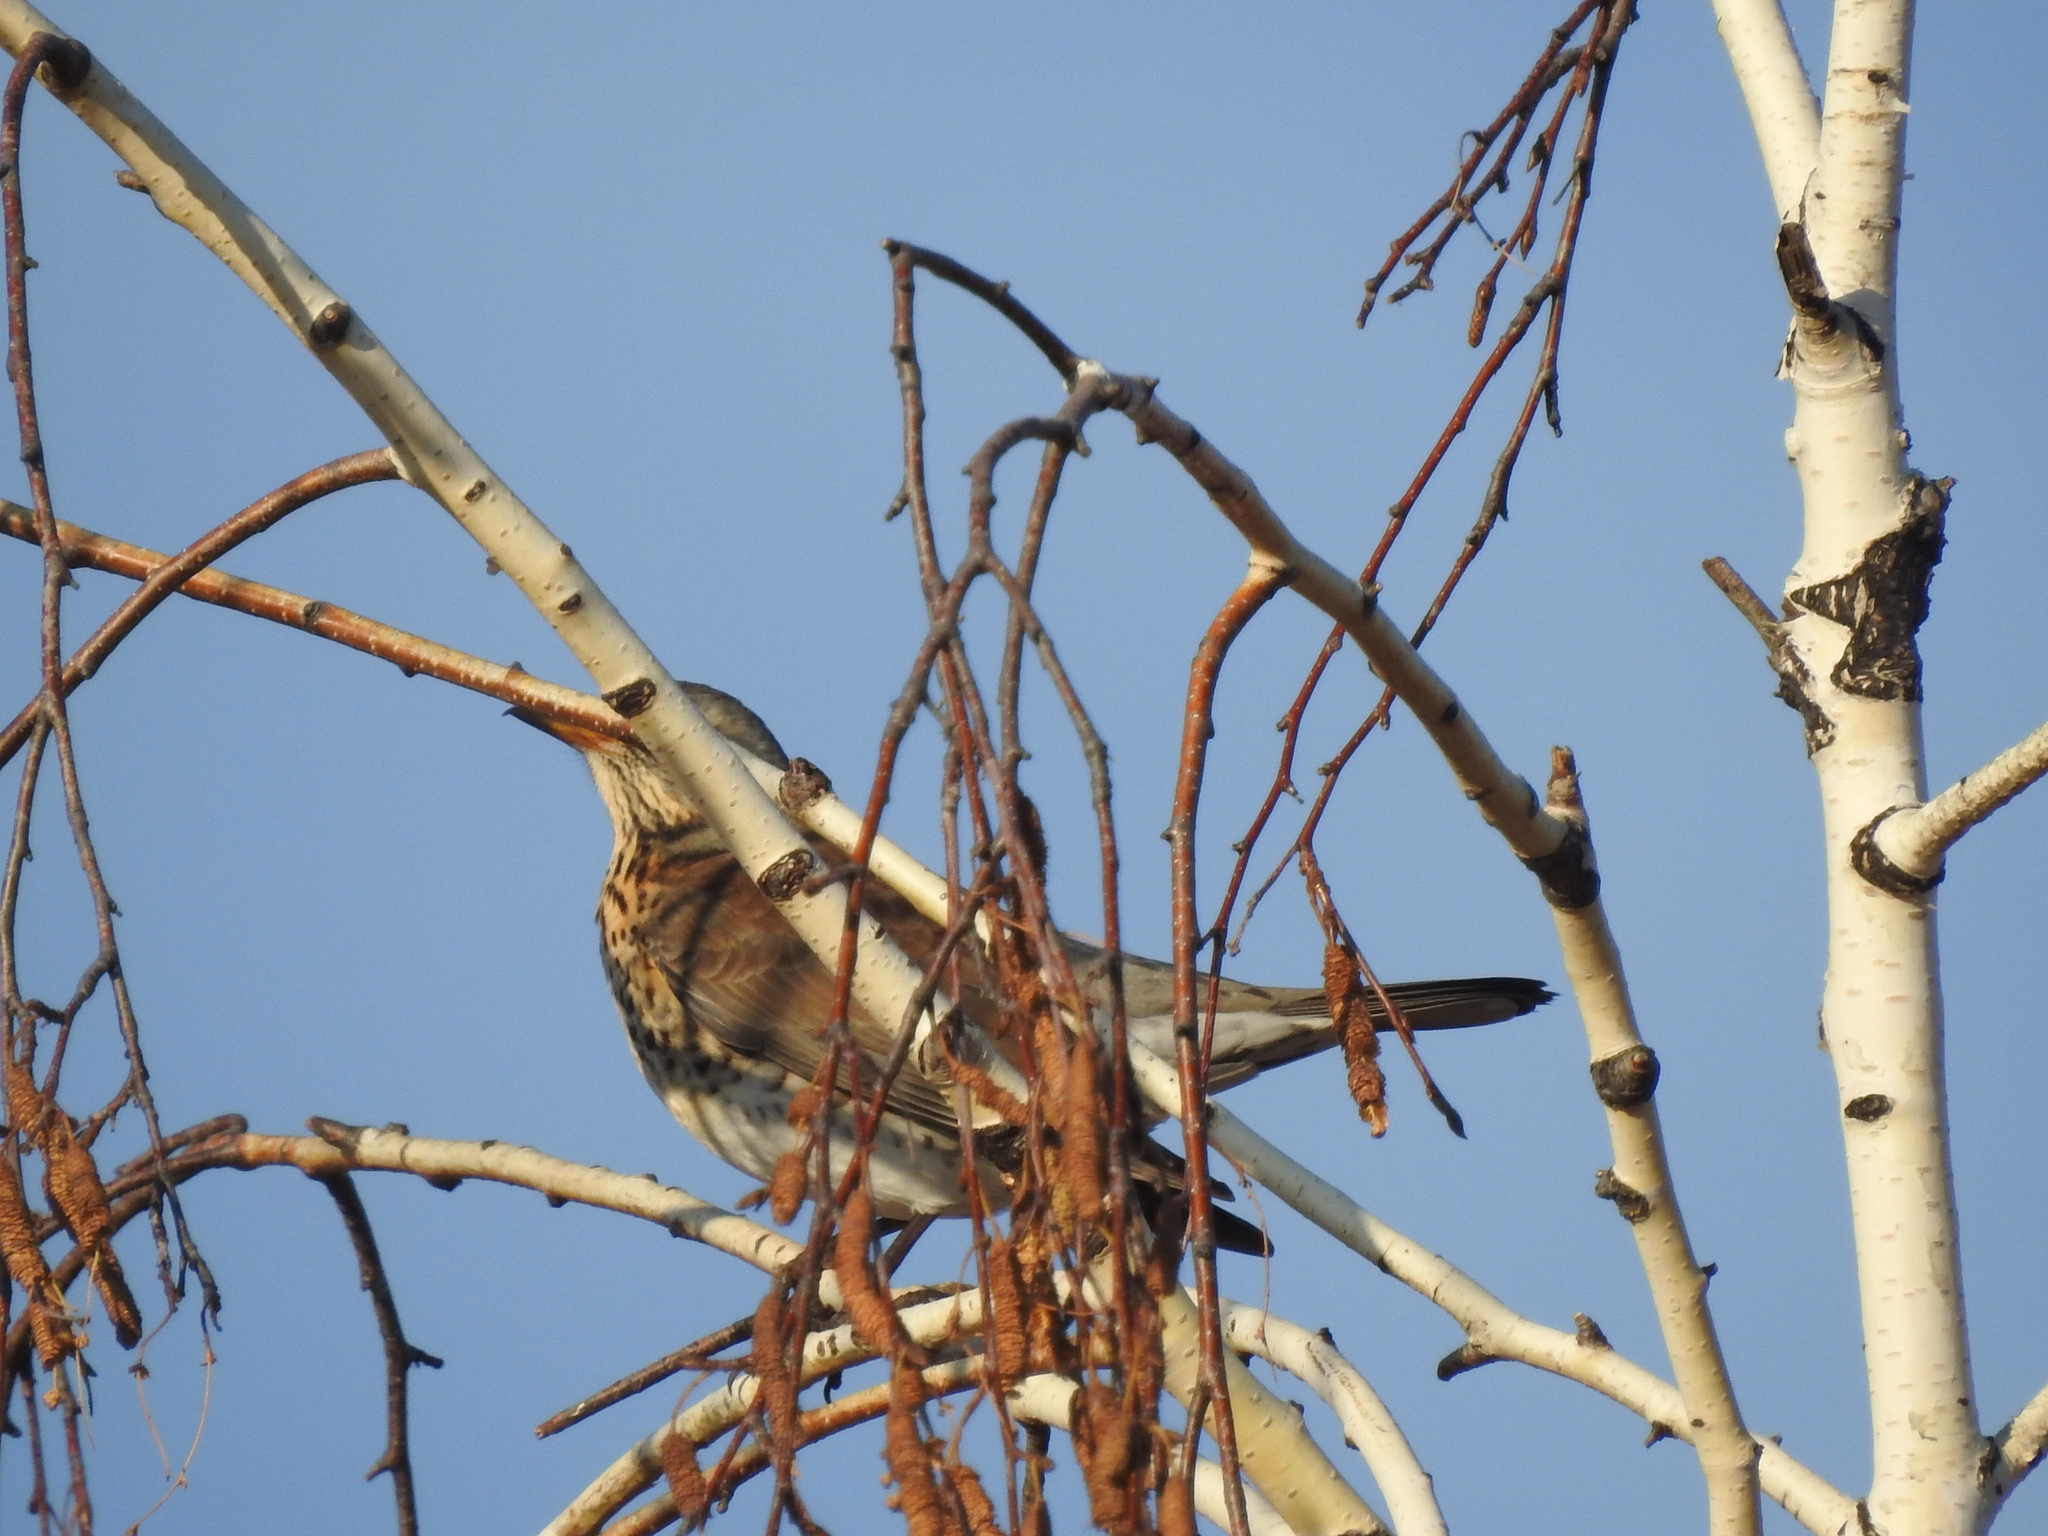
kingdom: Animalia
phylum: Chordata
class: Aves
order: Passeriformes
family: Turdidae
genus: Turdus
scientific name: Turdus pilaris
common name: Fieldfare
